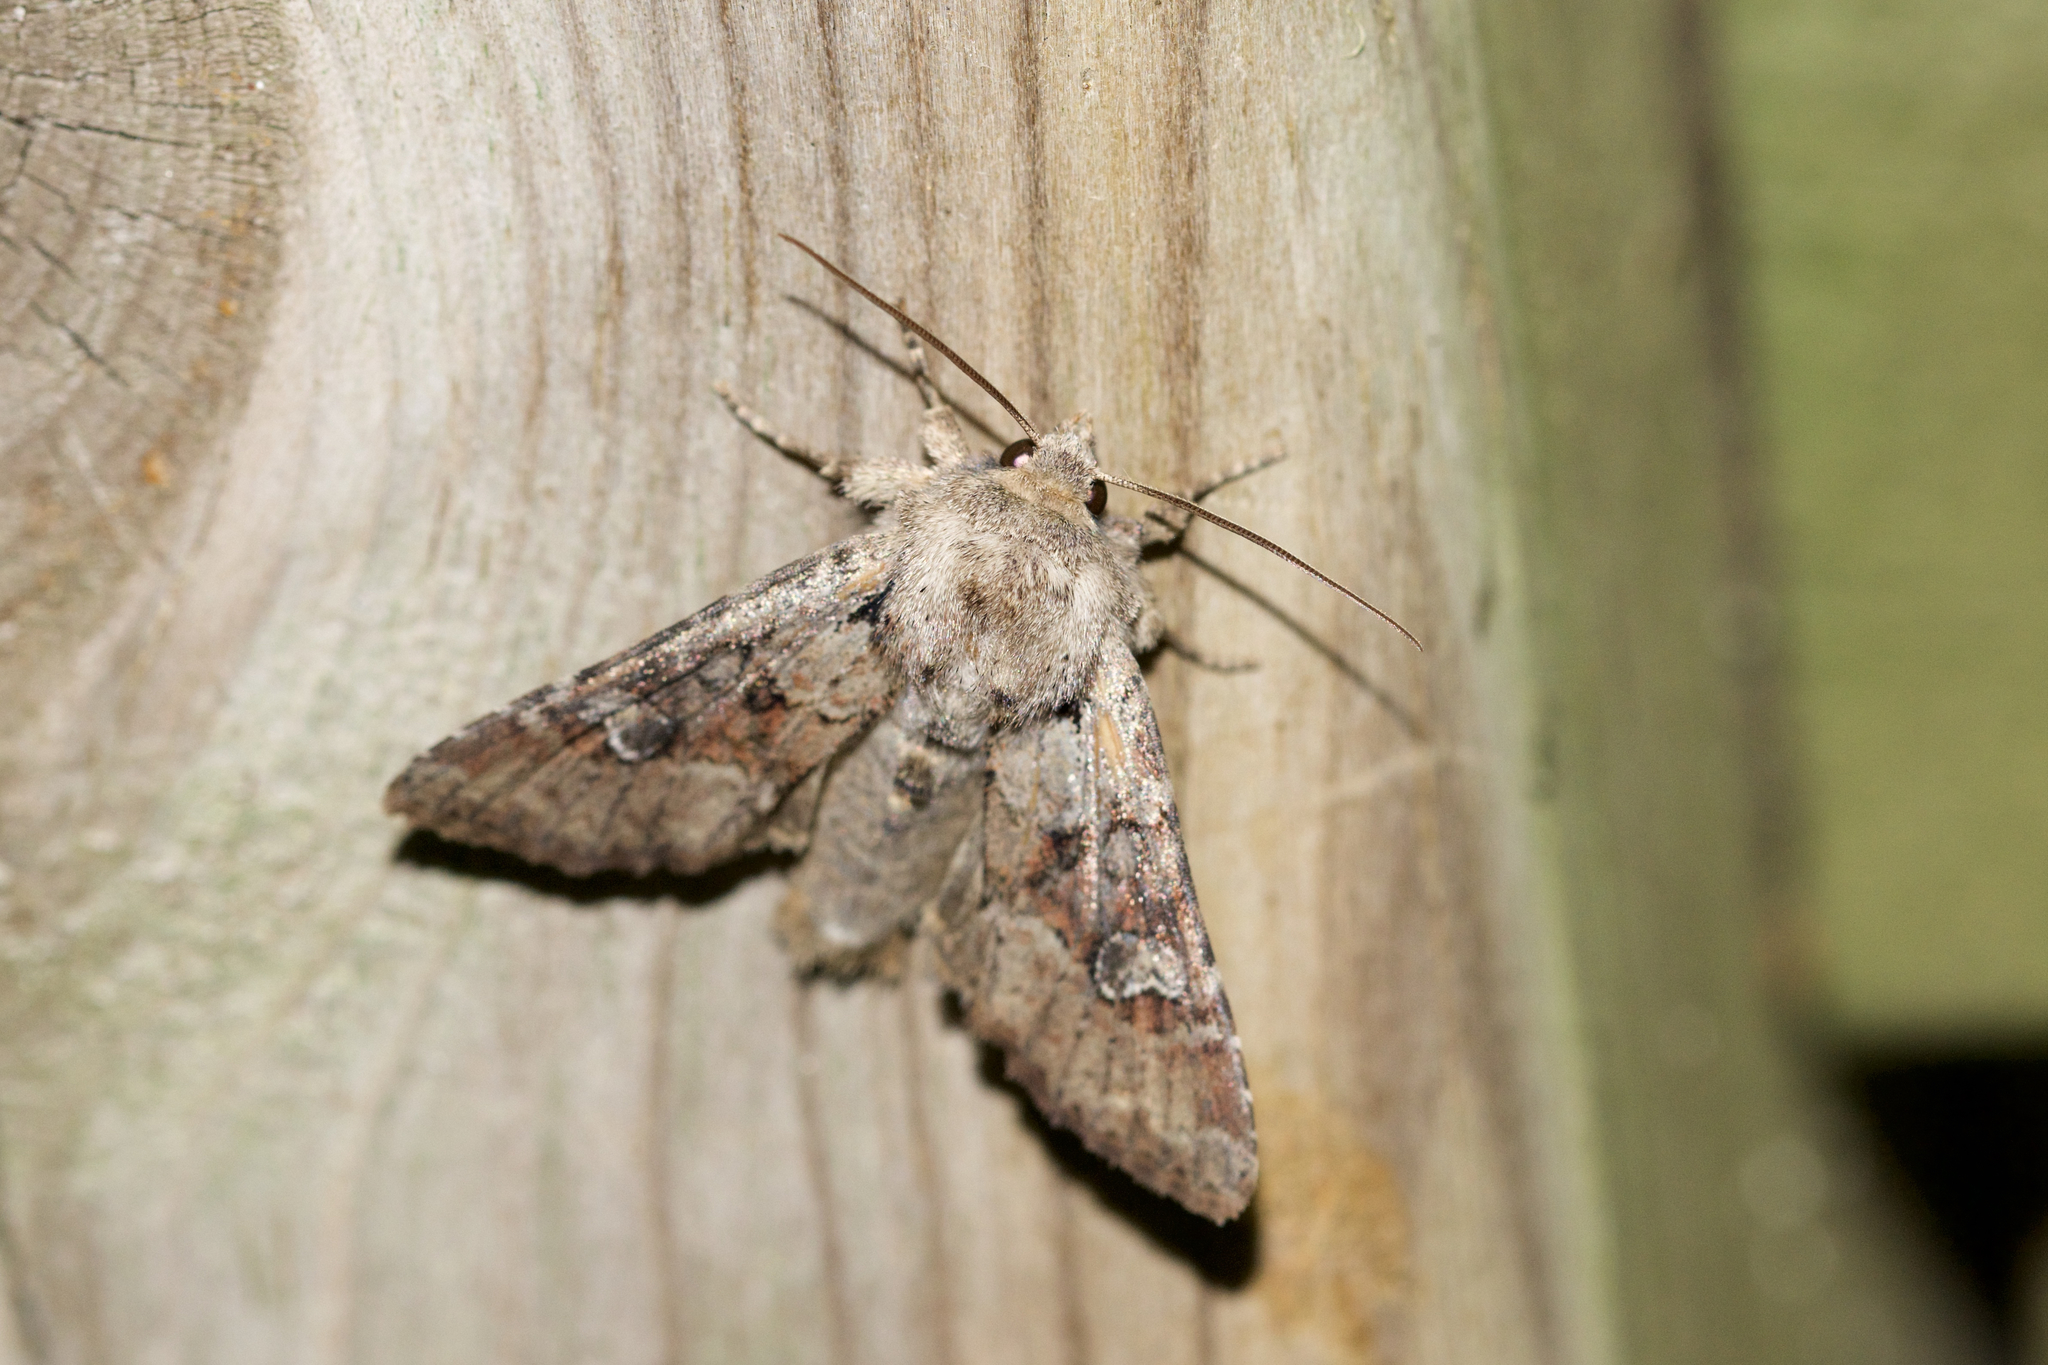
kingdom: Animalia
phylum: Arthropoda
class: Insecta
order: Lepidoptera
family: Noctuidae
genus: Apamea
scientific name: Apamea sordens
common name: Rustic shoulder-knot
